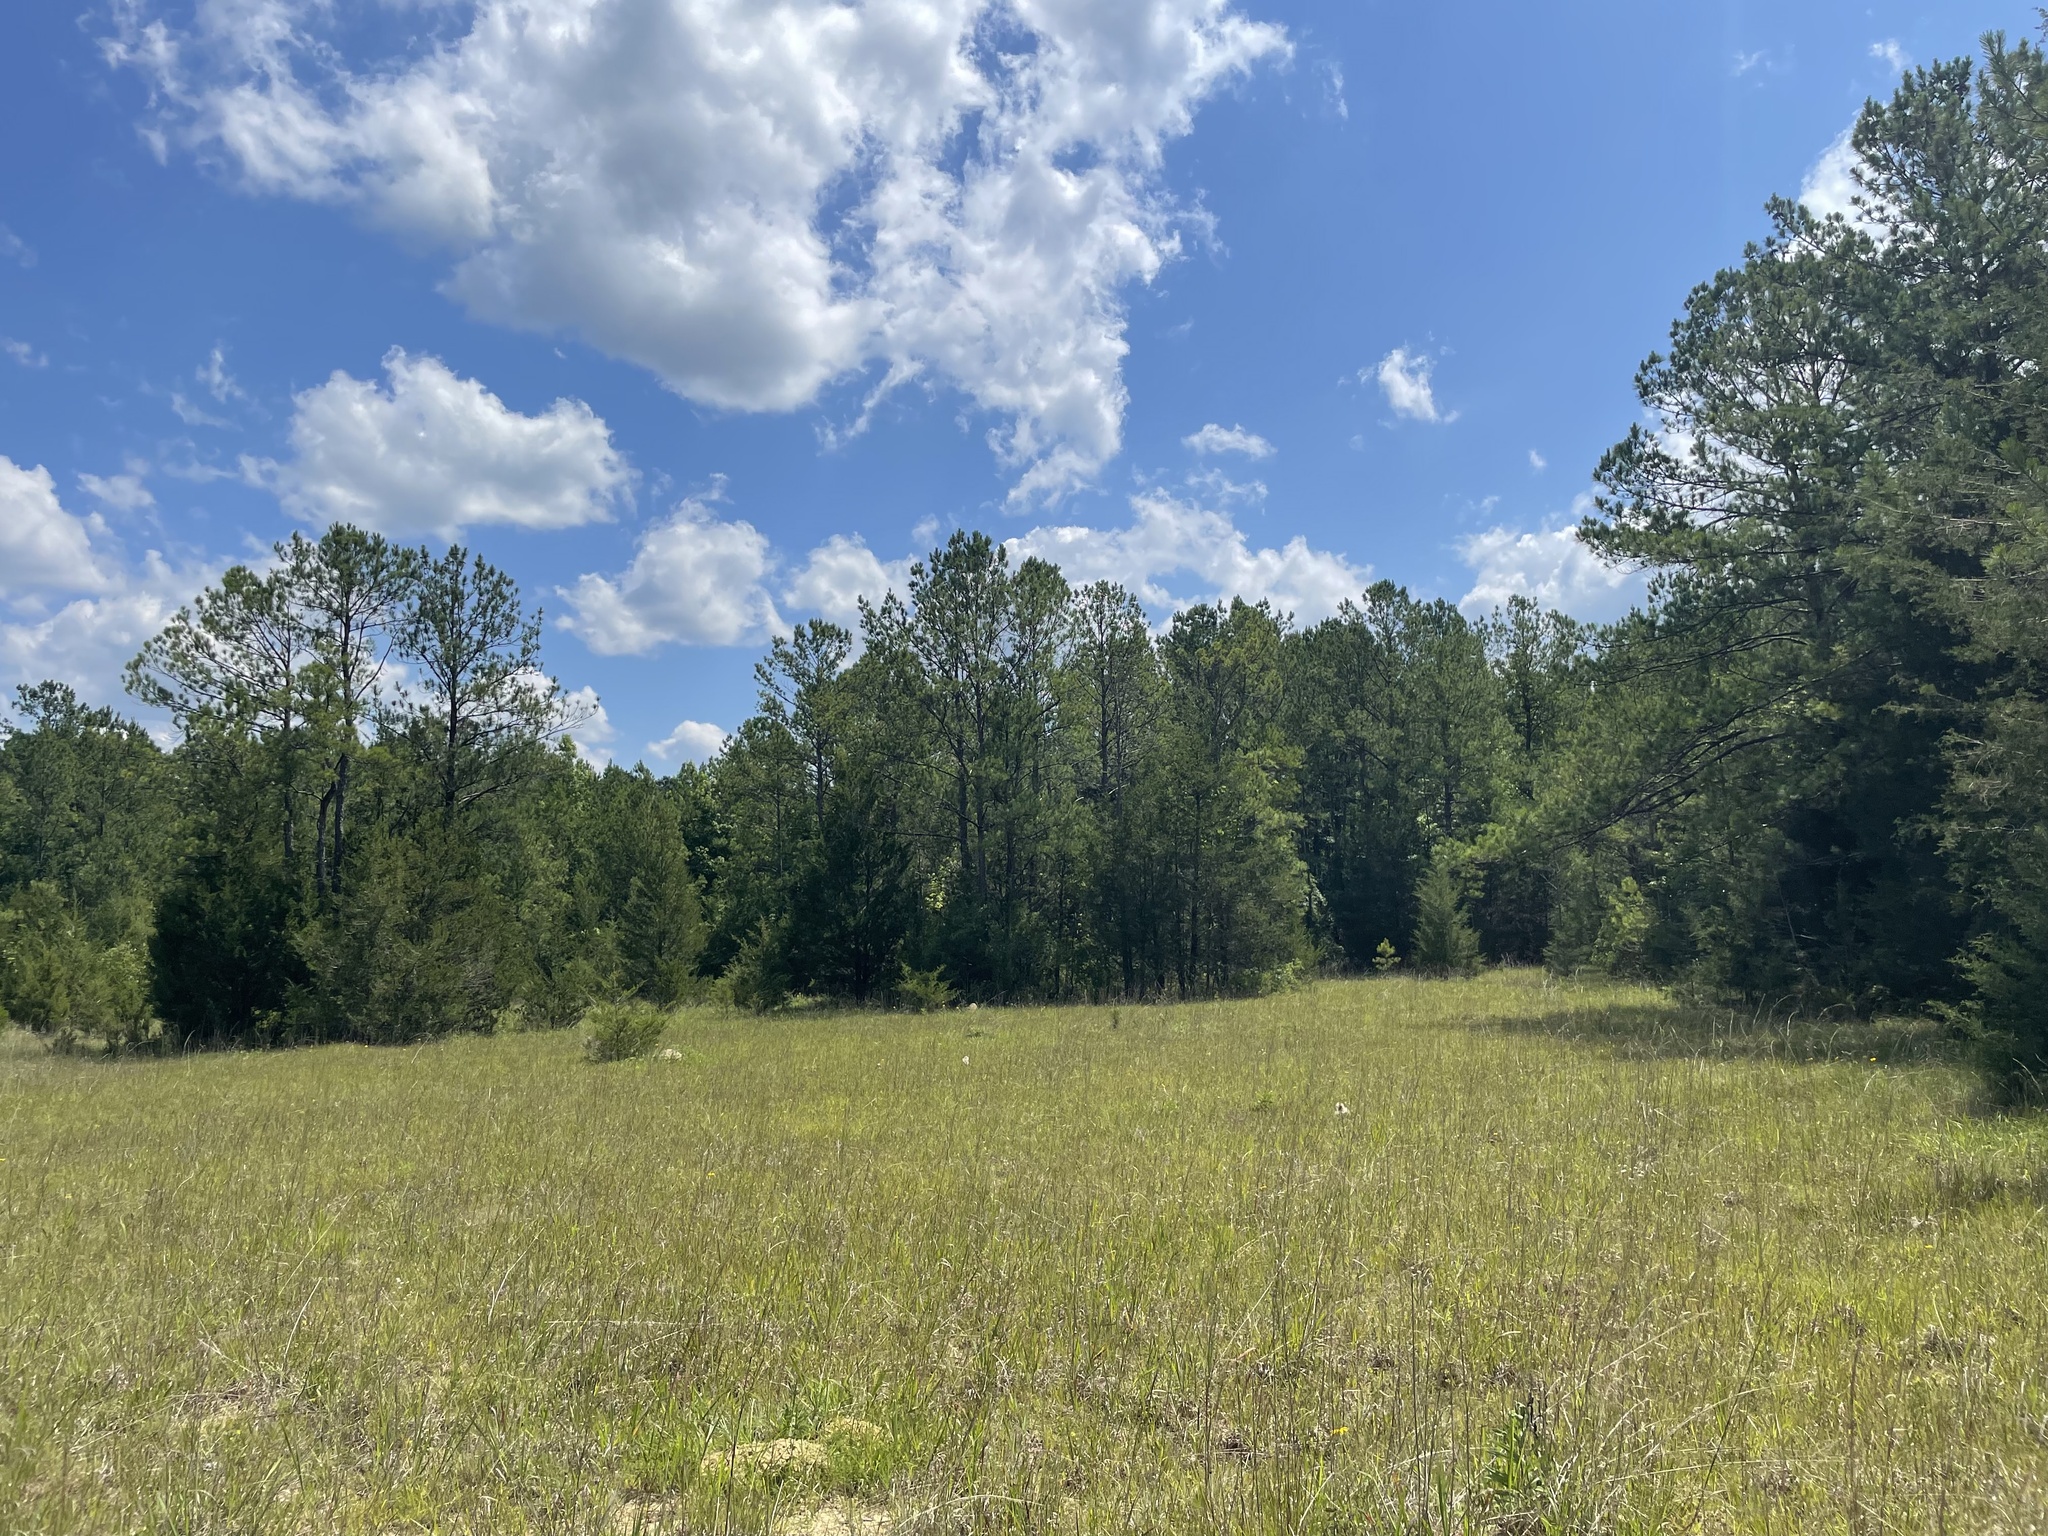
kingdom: Plantae
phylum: Tracheophyta
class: Liliopsida
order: Poales
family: Poaceae
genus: Schizachyrium
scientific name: Schizachyrium scoparium
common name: Little bluestem
